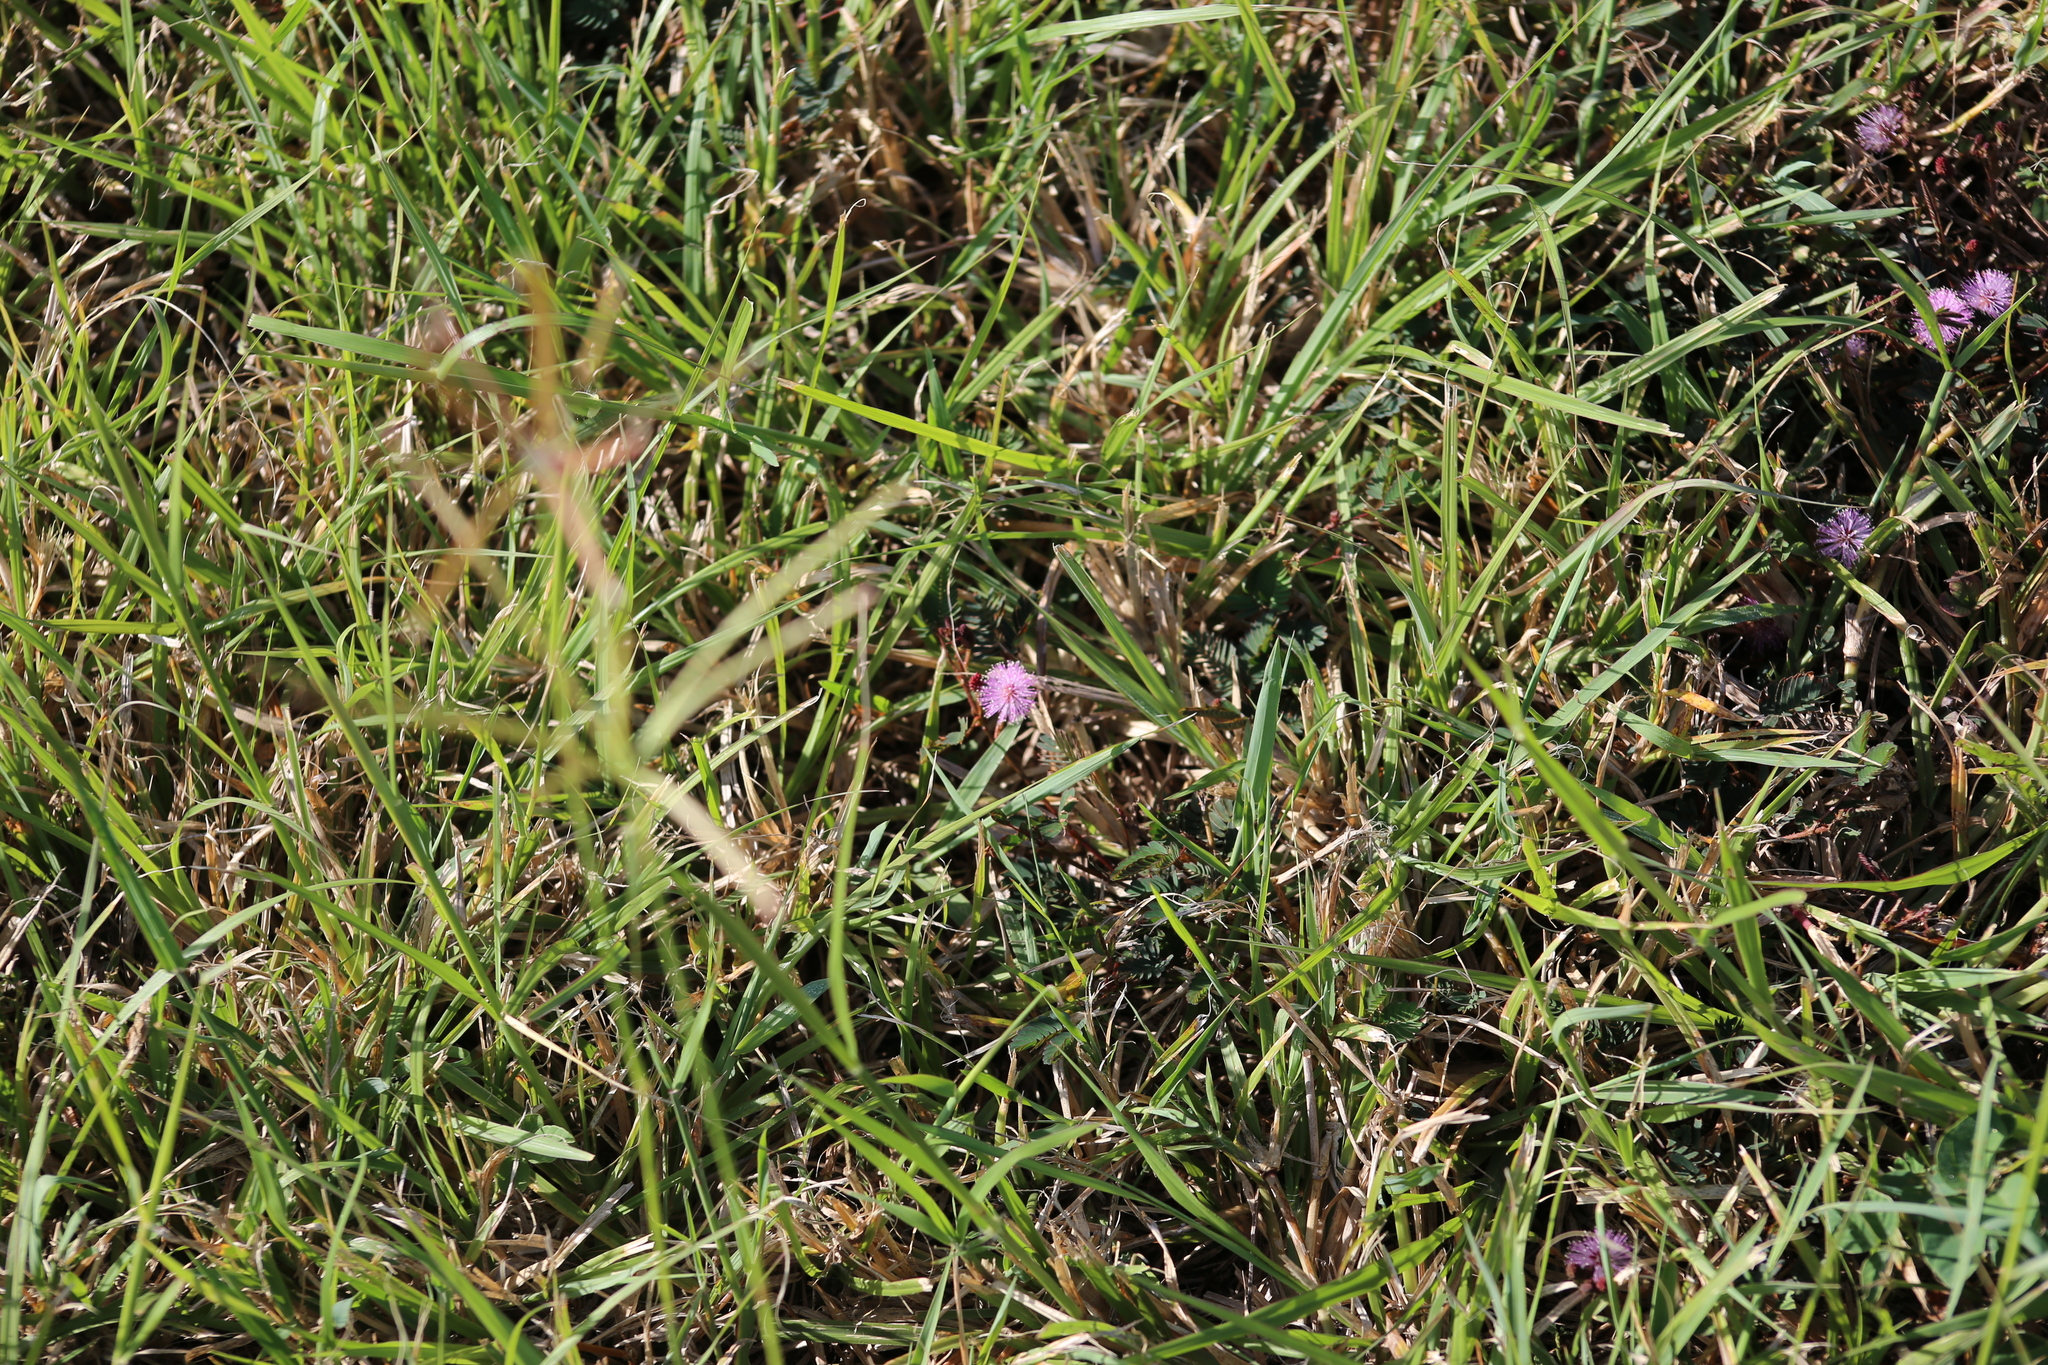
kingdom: Plantae
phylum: Tracheophyta
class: Magnoliopsida
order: Fabales
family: Fabaceae
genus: Mimosa
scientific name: Mimosa pudica
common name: Sensitive plant
